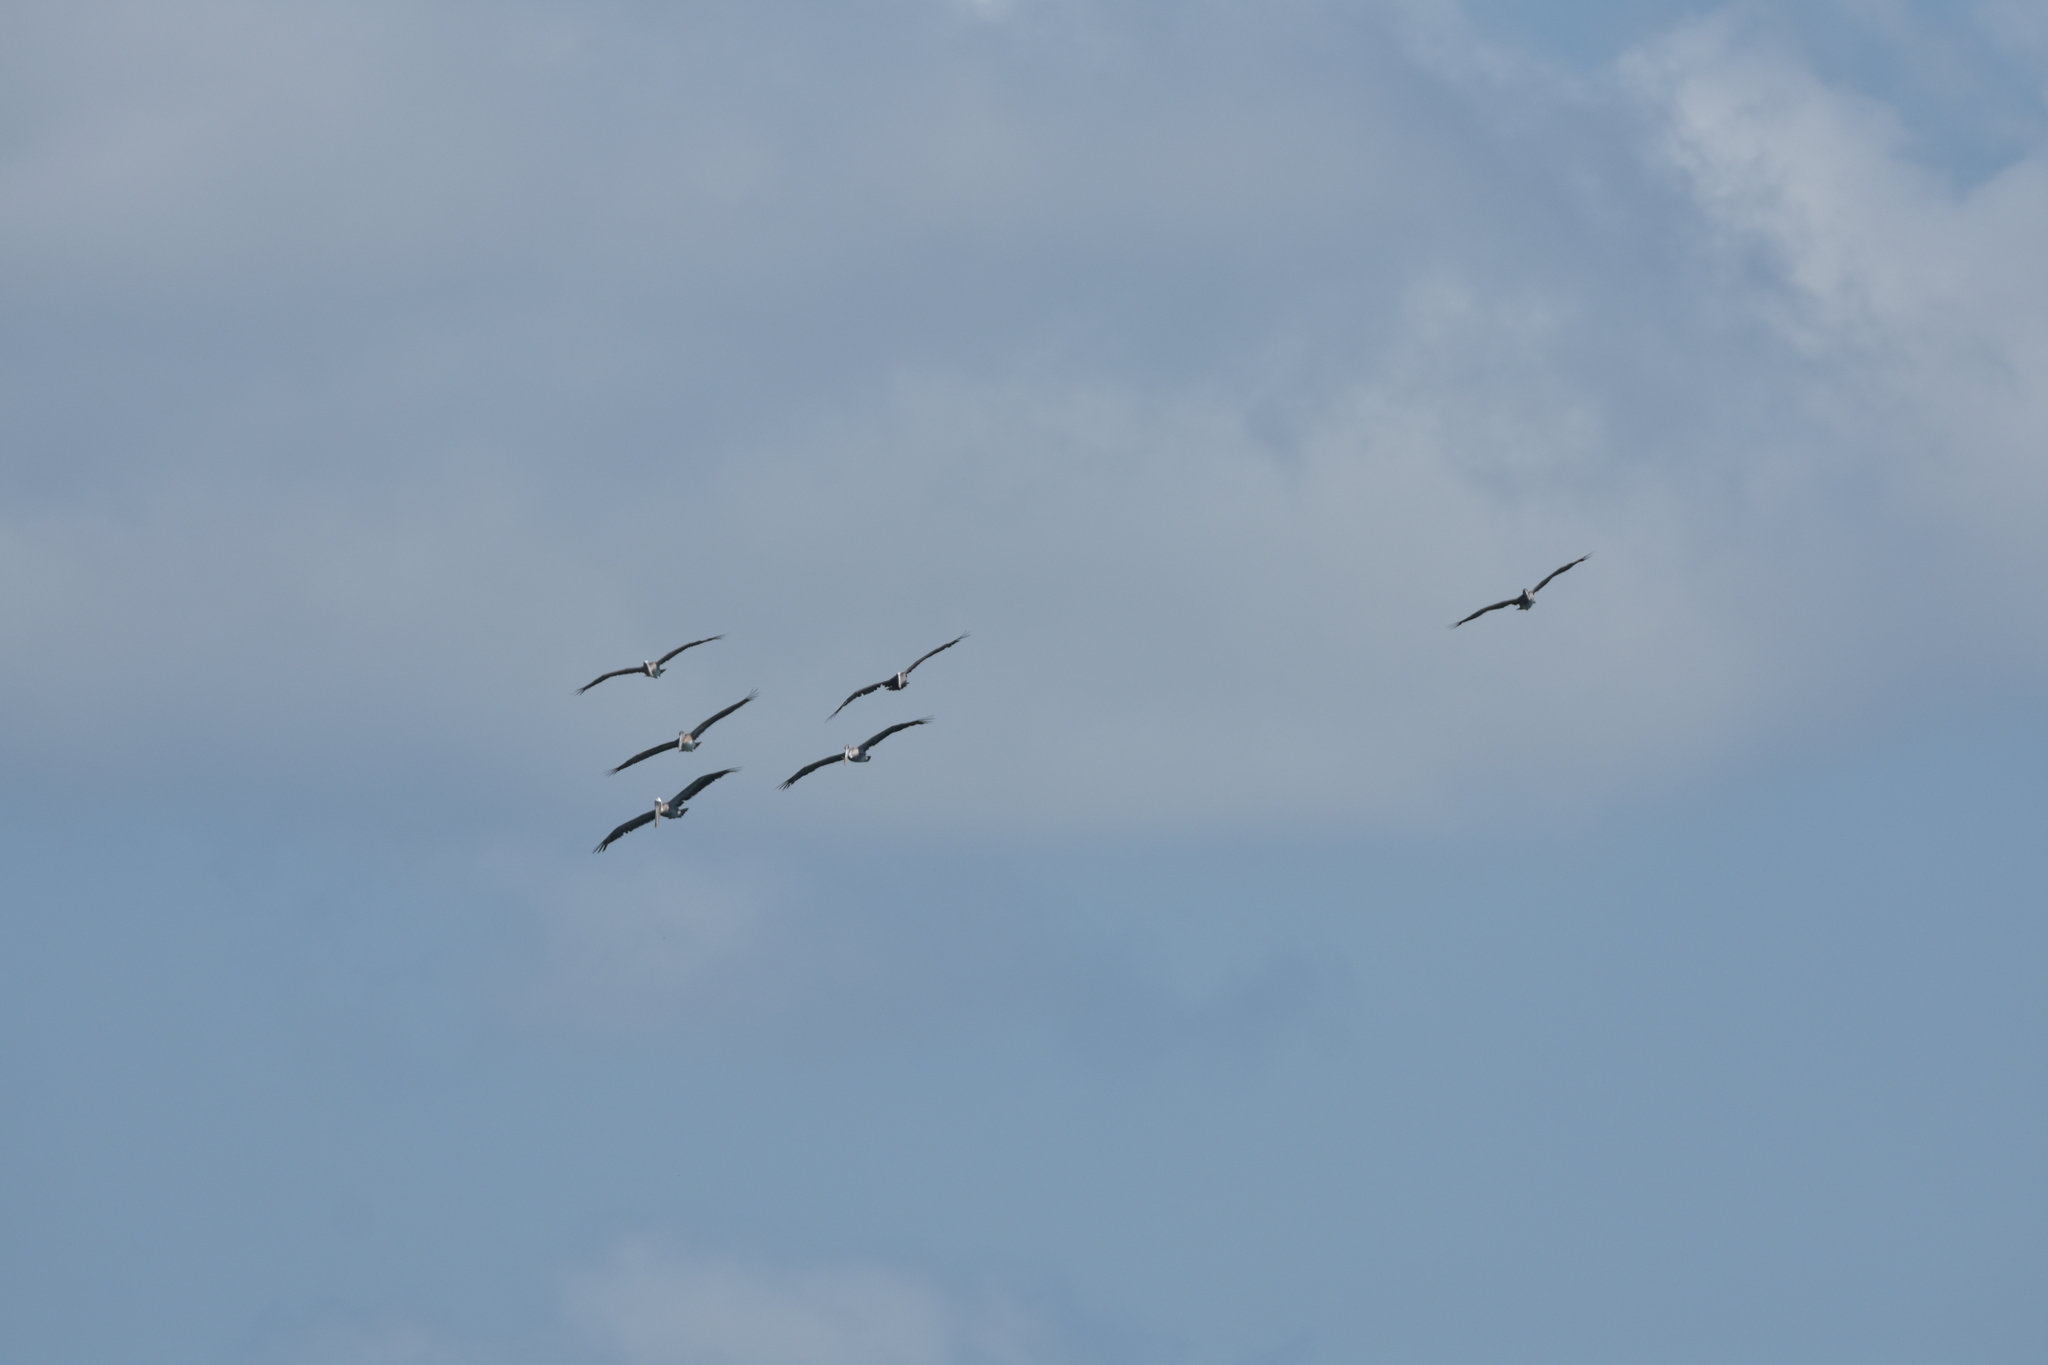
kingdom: Animalia
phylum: Chordata
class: Aves
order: Pelecaniformes
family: Pelecanidae
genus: Pelecanus
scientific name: Pelecanus occidentalis
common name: Brown pelican
